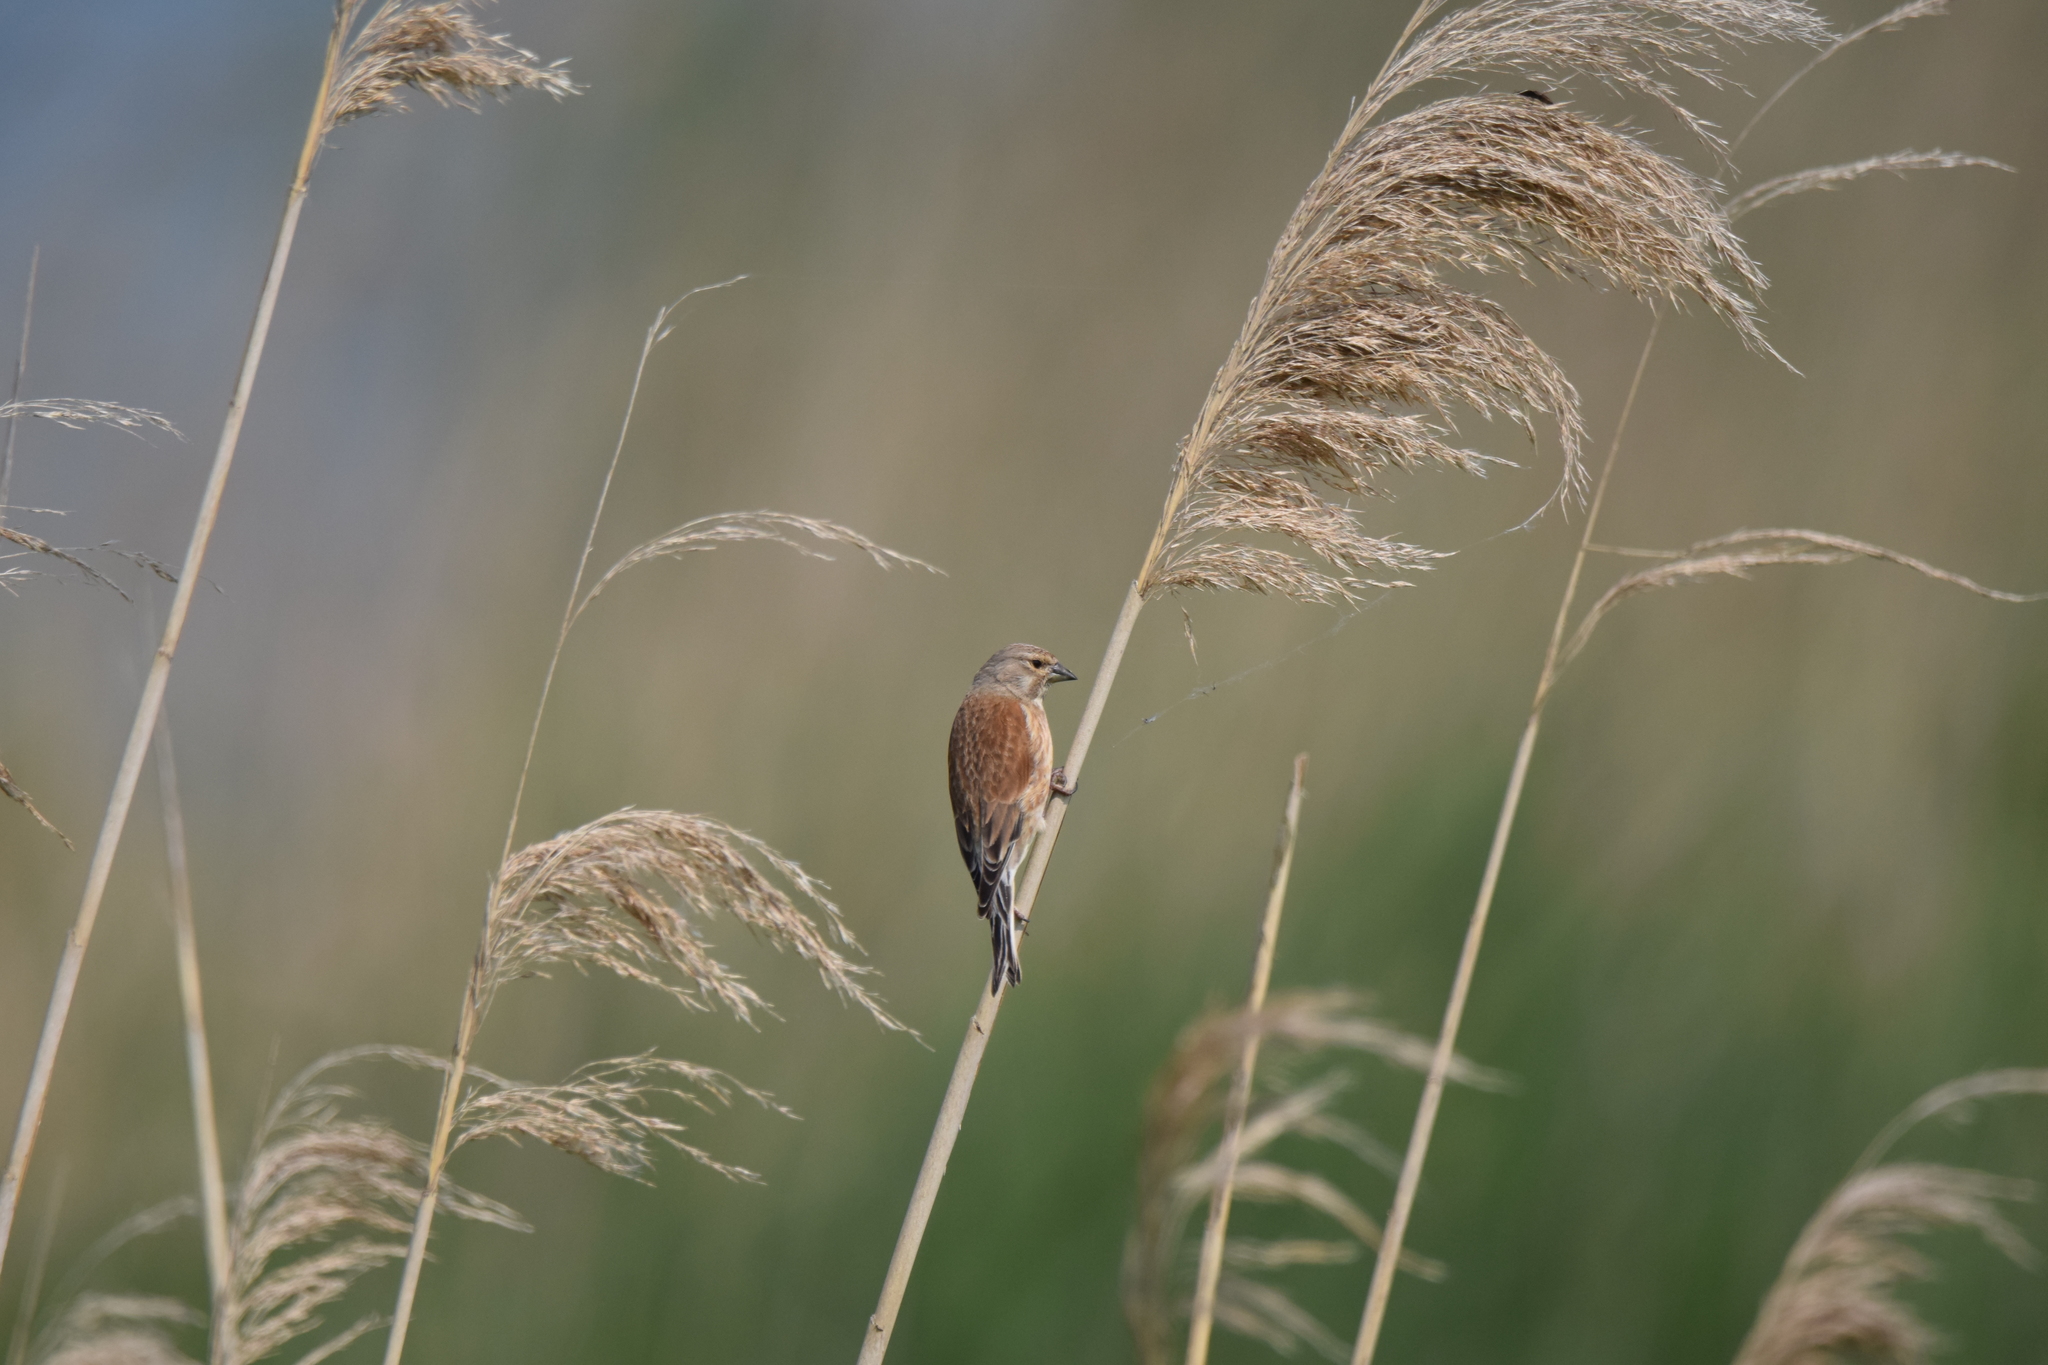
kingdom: Animalia
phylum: Chordata
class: Aves
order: Passeriformes
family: Fringillidae
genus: Linaria
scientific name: Linaria cannabina
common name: Common linnet
